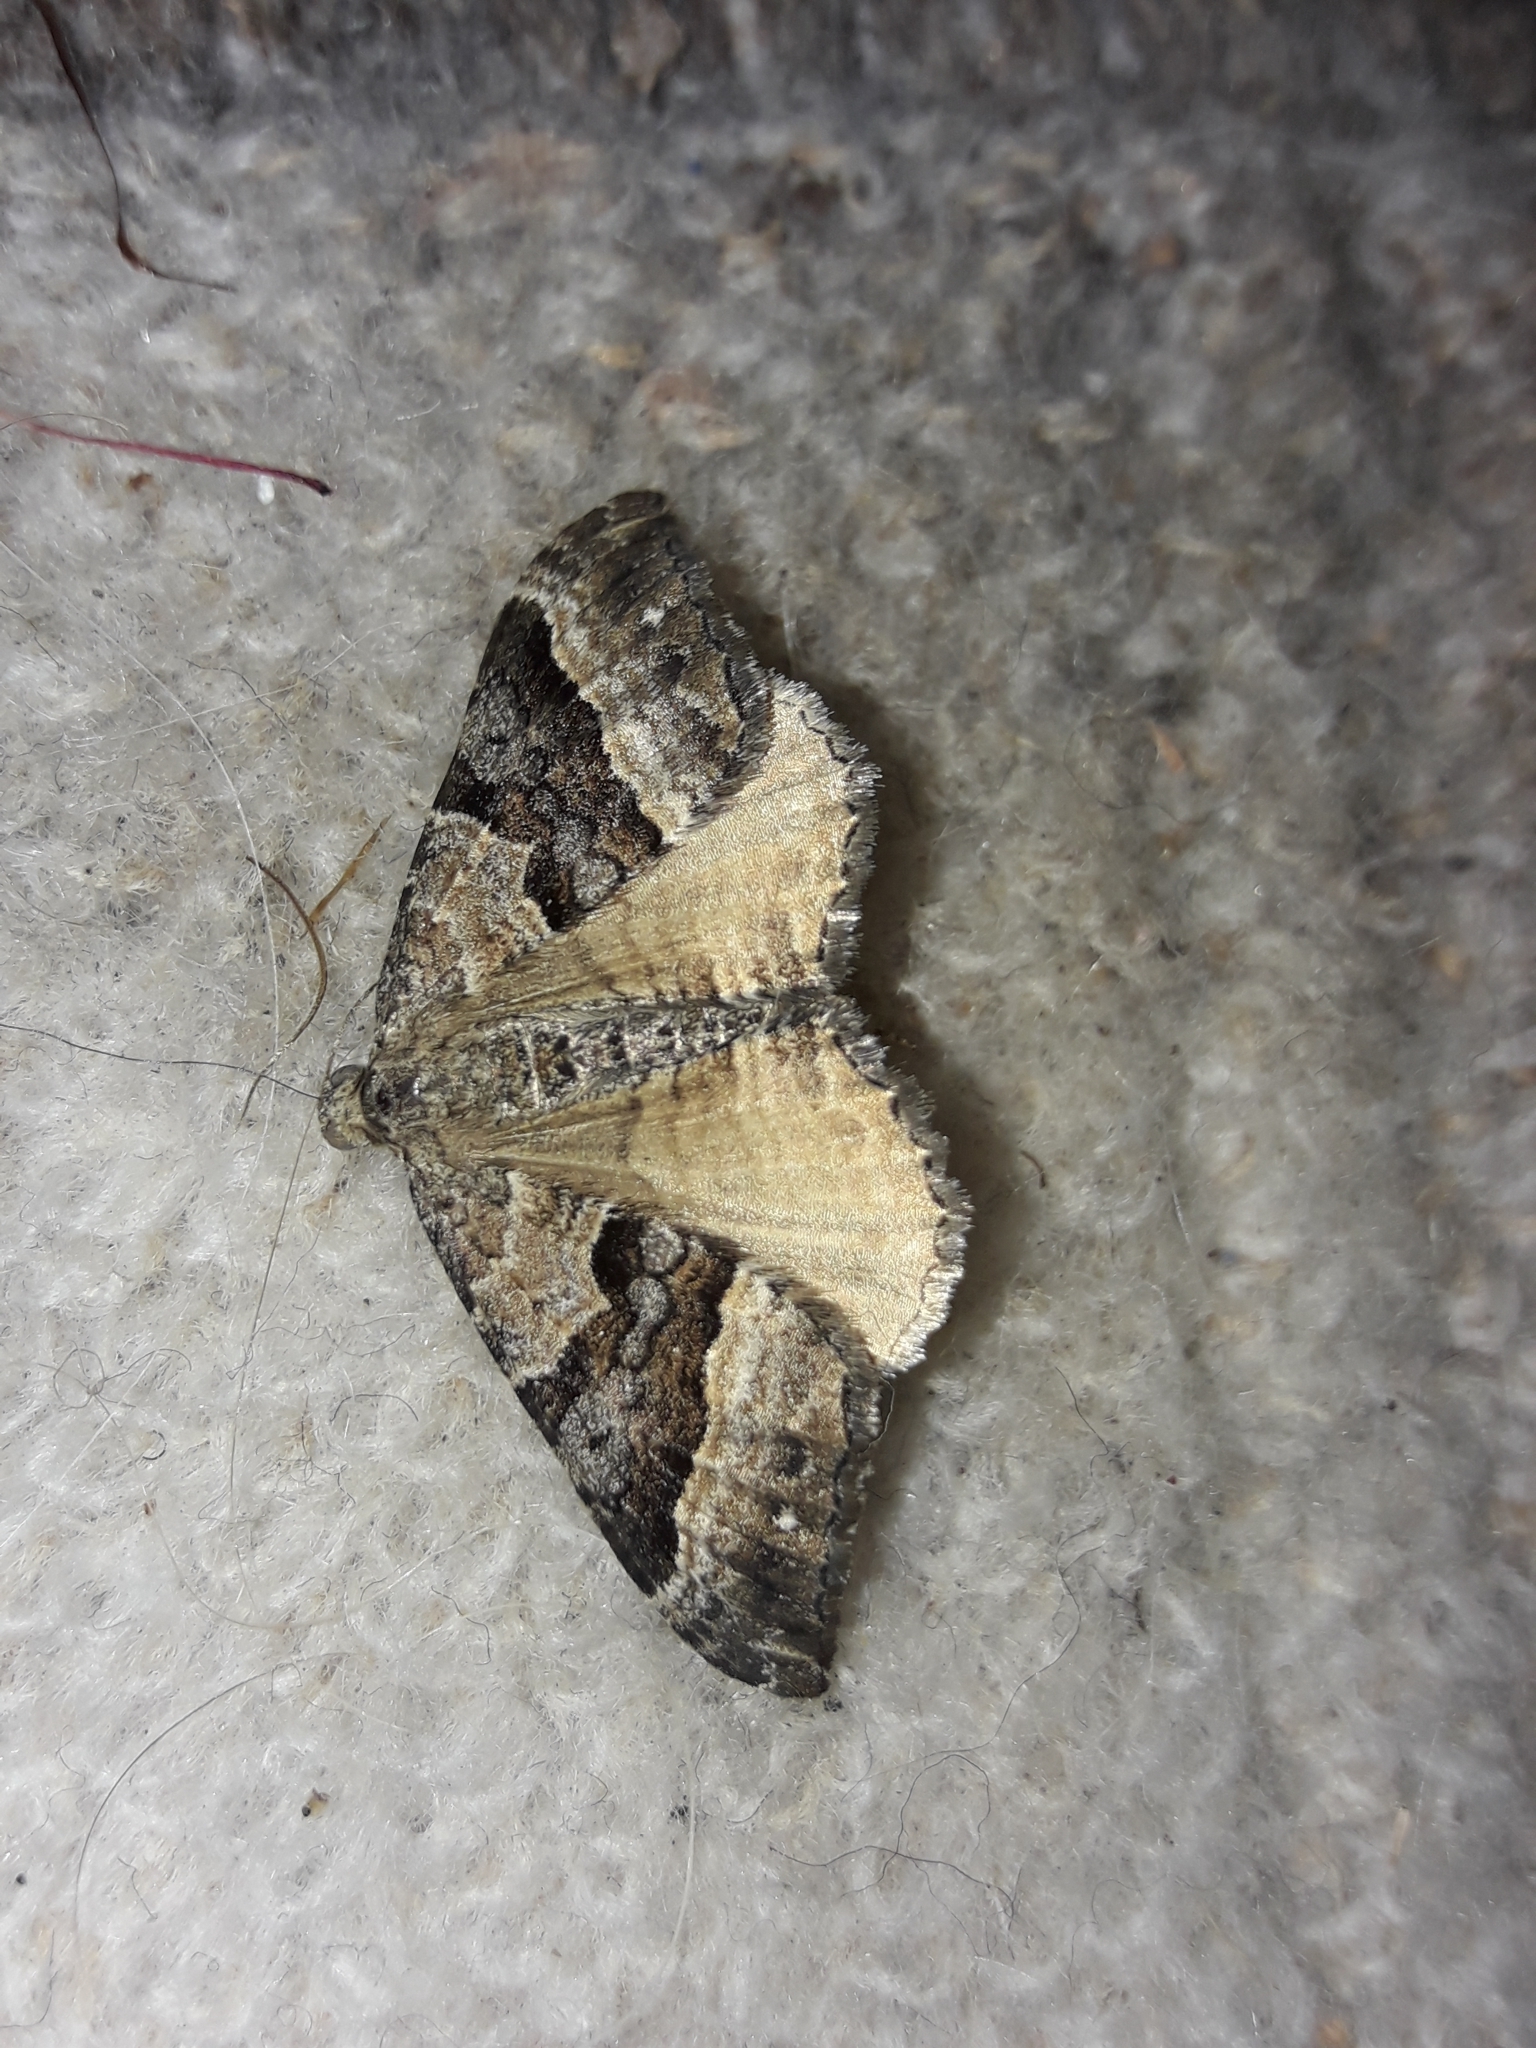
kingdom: Animalia
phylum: Arthropoda
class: Insecta
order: Lepidoptera
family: Geometridae
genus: Hydriomena
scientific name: Hydriomena deltoidata
